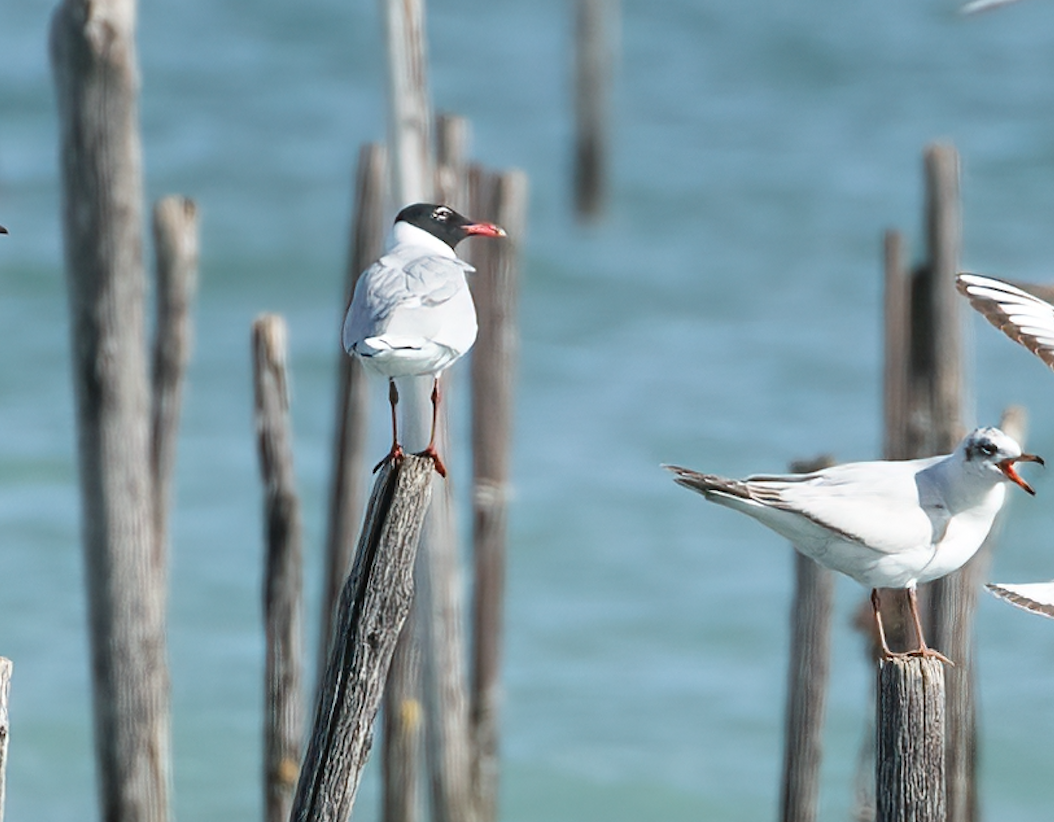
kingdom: Animalia
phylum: Chordata
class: Aves
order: Charadriiformes
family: Laridae
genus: Ichthyaetus
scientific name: Ichthyaetus melanocephalus
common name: Mediterranean gull
